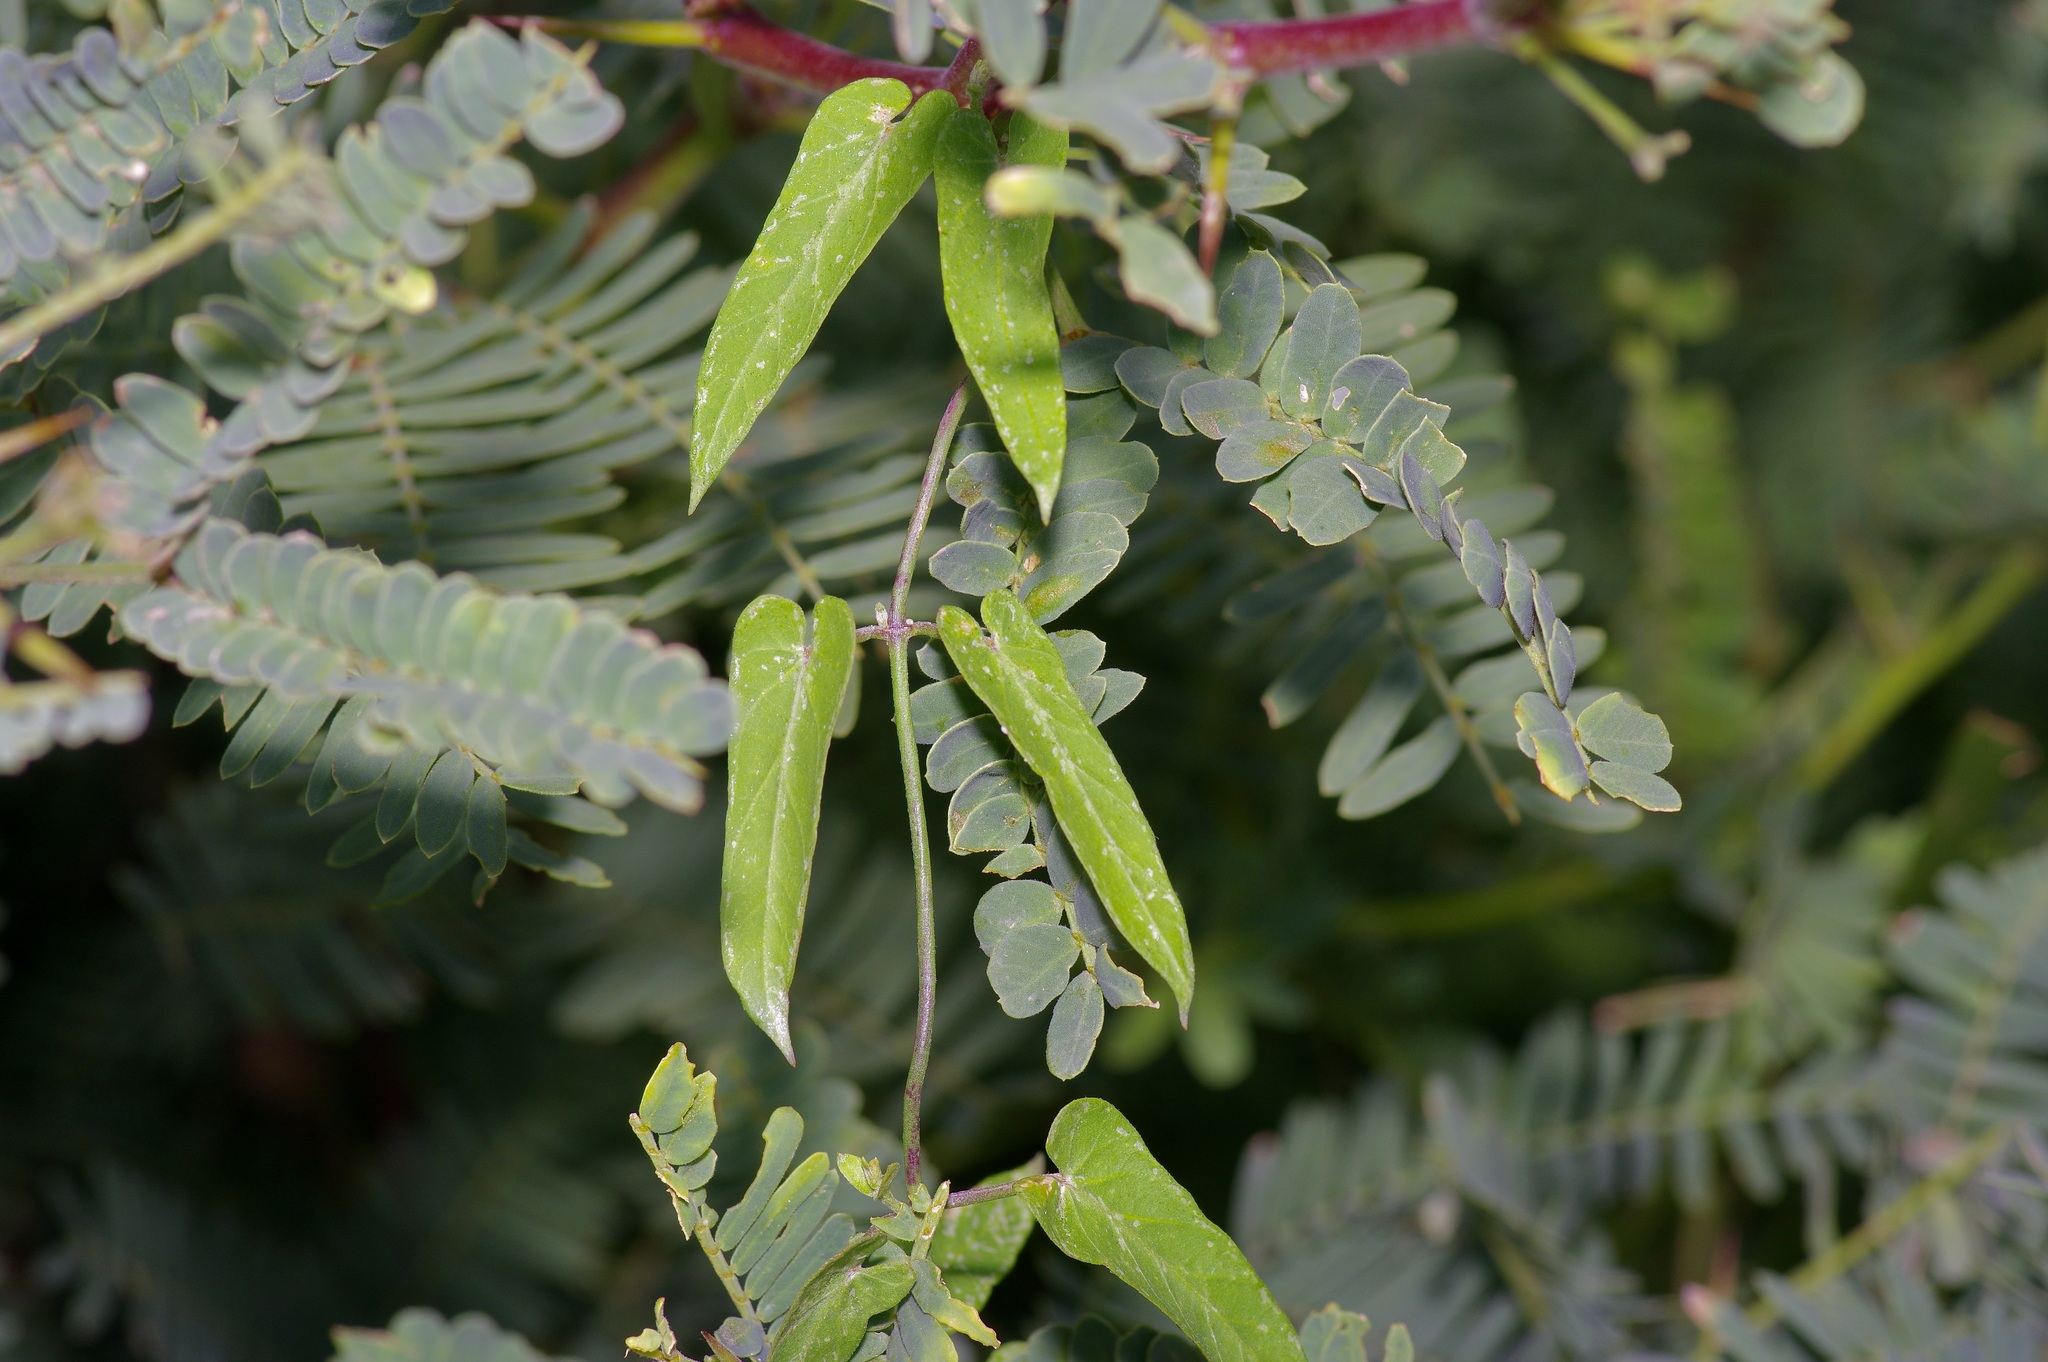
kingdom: Plantae
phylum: Tracheophyta
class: Magnoliopsida
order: Gentianales
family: Apocynaceae
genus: Funastrum
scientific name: Funastrum heterophyllum
